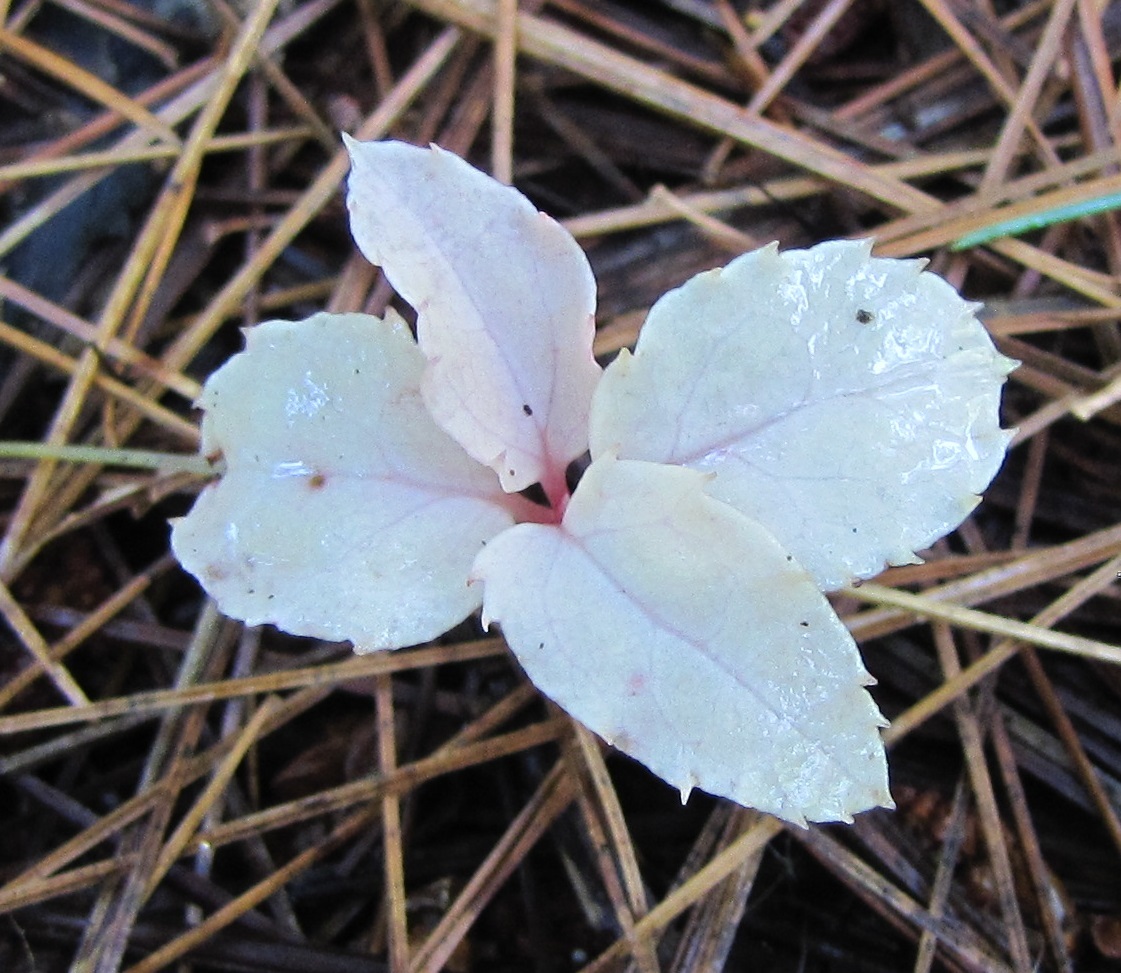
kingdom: Plantae
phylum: Tracheophyta
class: Magnoliopsida
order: Ericales
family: Ericaceae
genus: Chimaphila
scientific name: Chimaphila maculata
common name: Spotted pipsissewa
